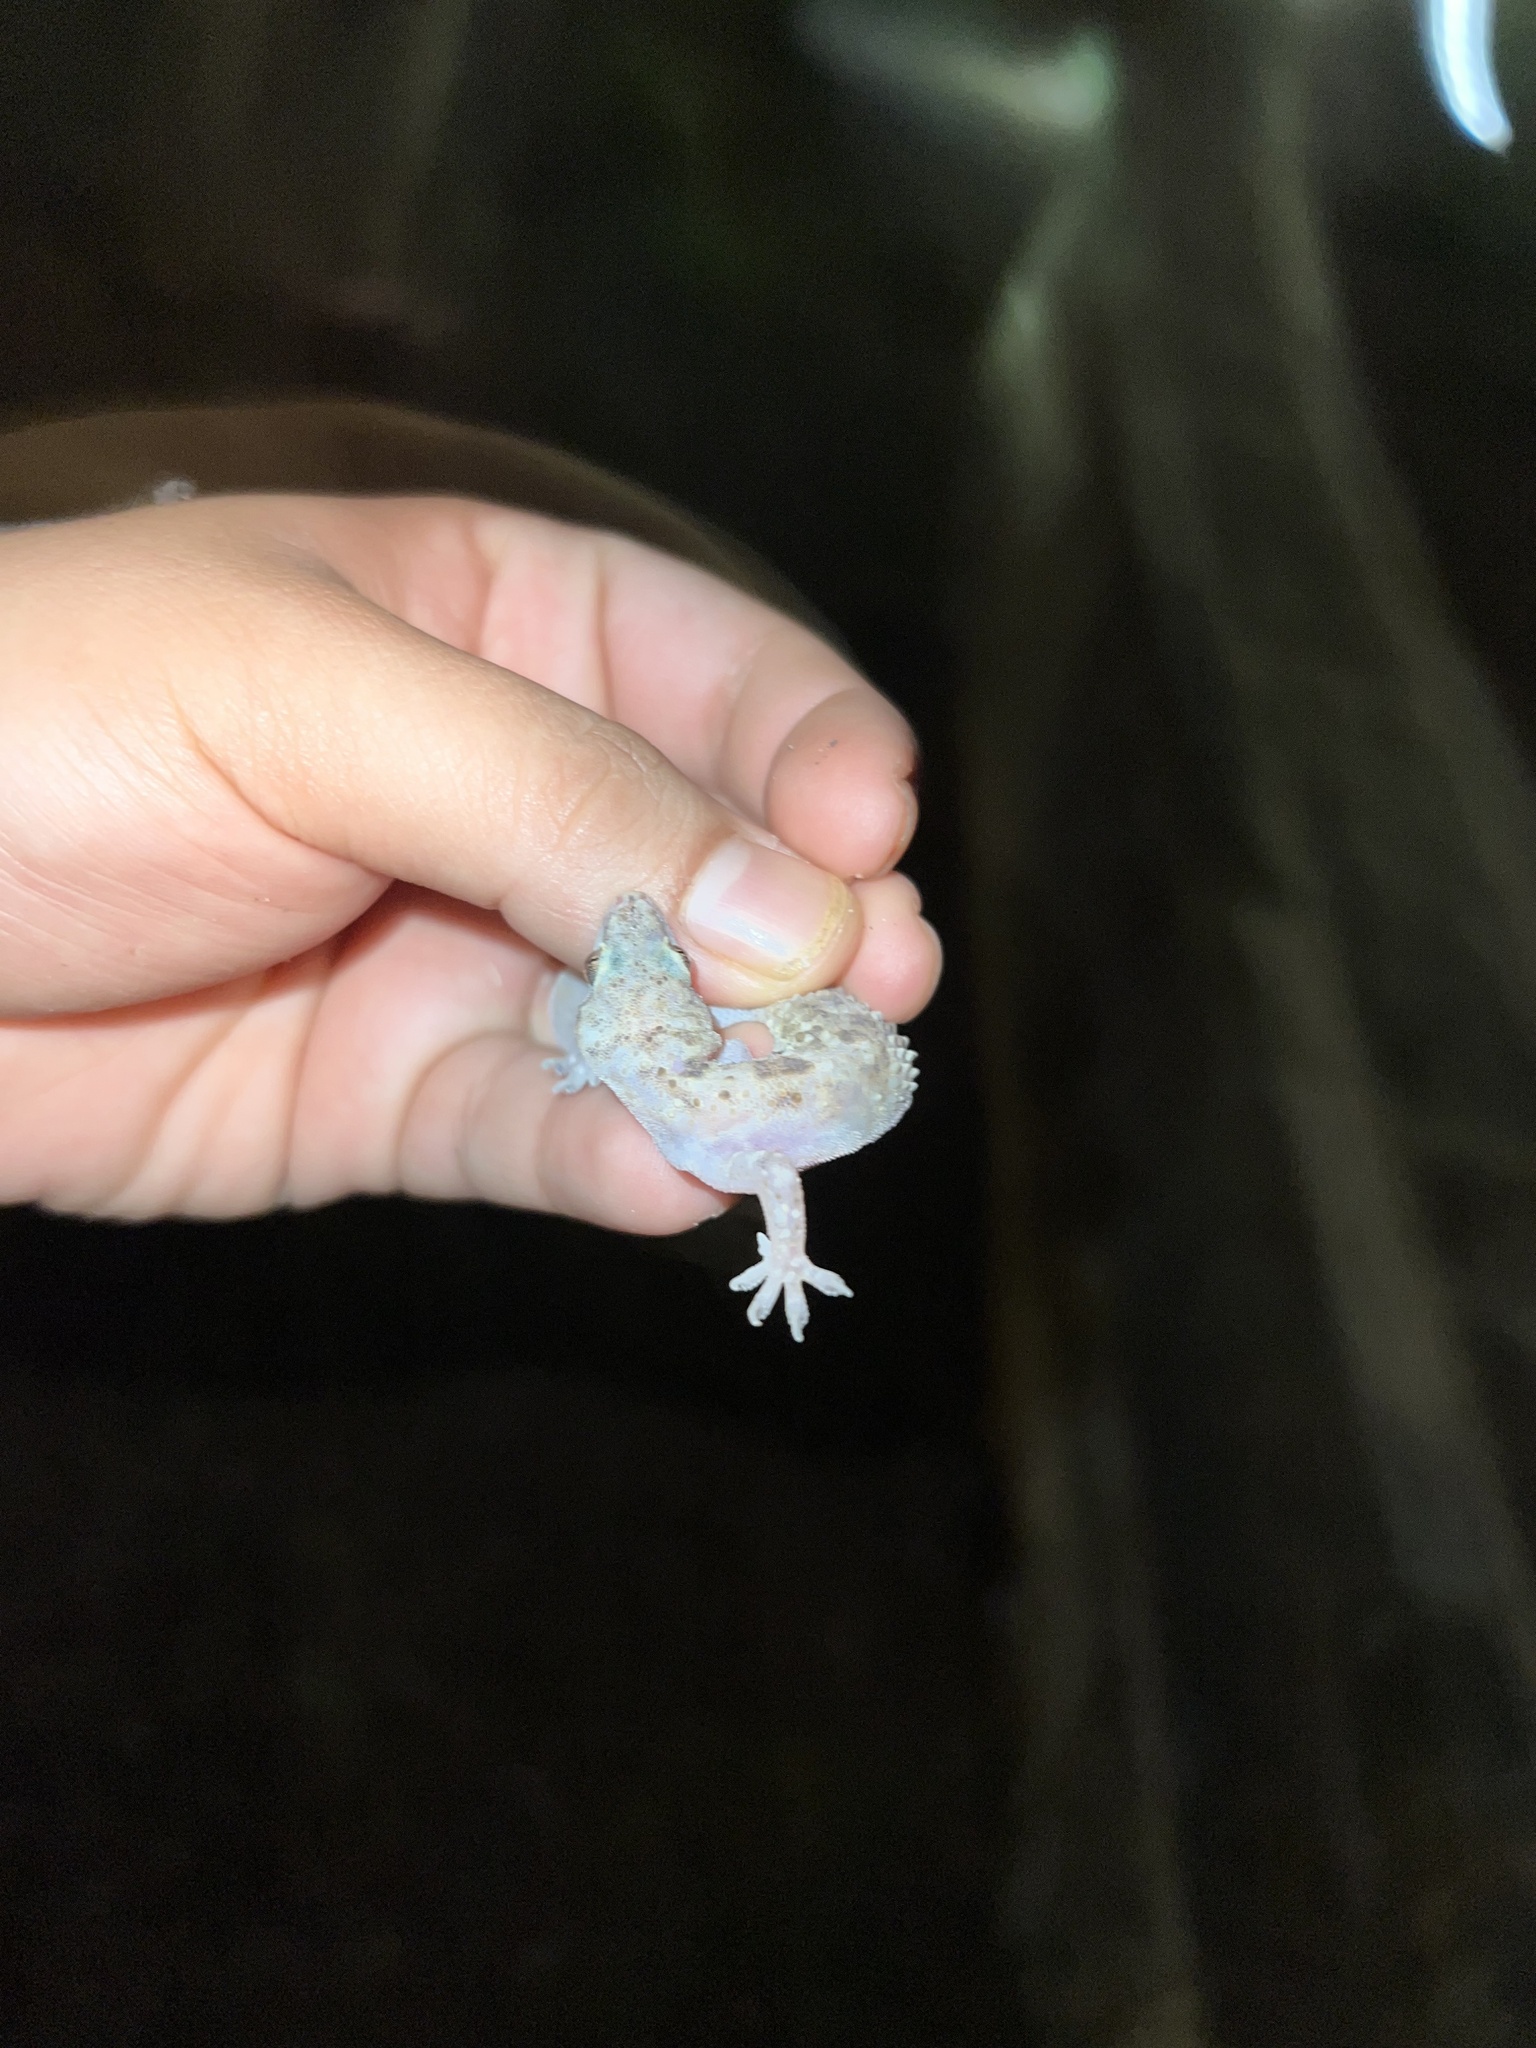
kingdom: Animalia
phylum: Chordata
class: Squamata
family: Gekkonidae
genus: Hemidactylus
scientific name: Hemidactylus turcicus
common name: Turkish gecko
